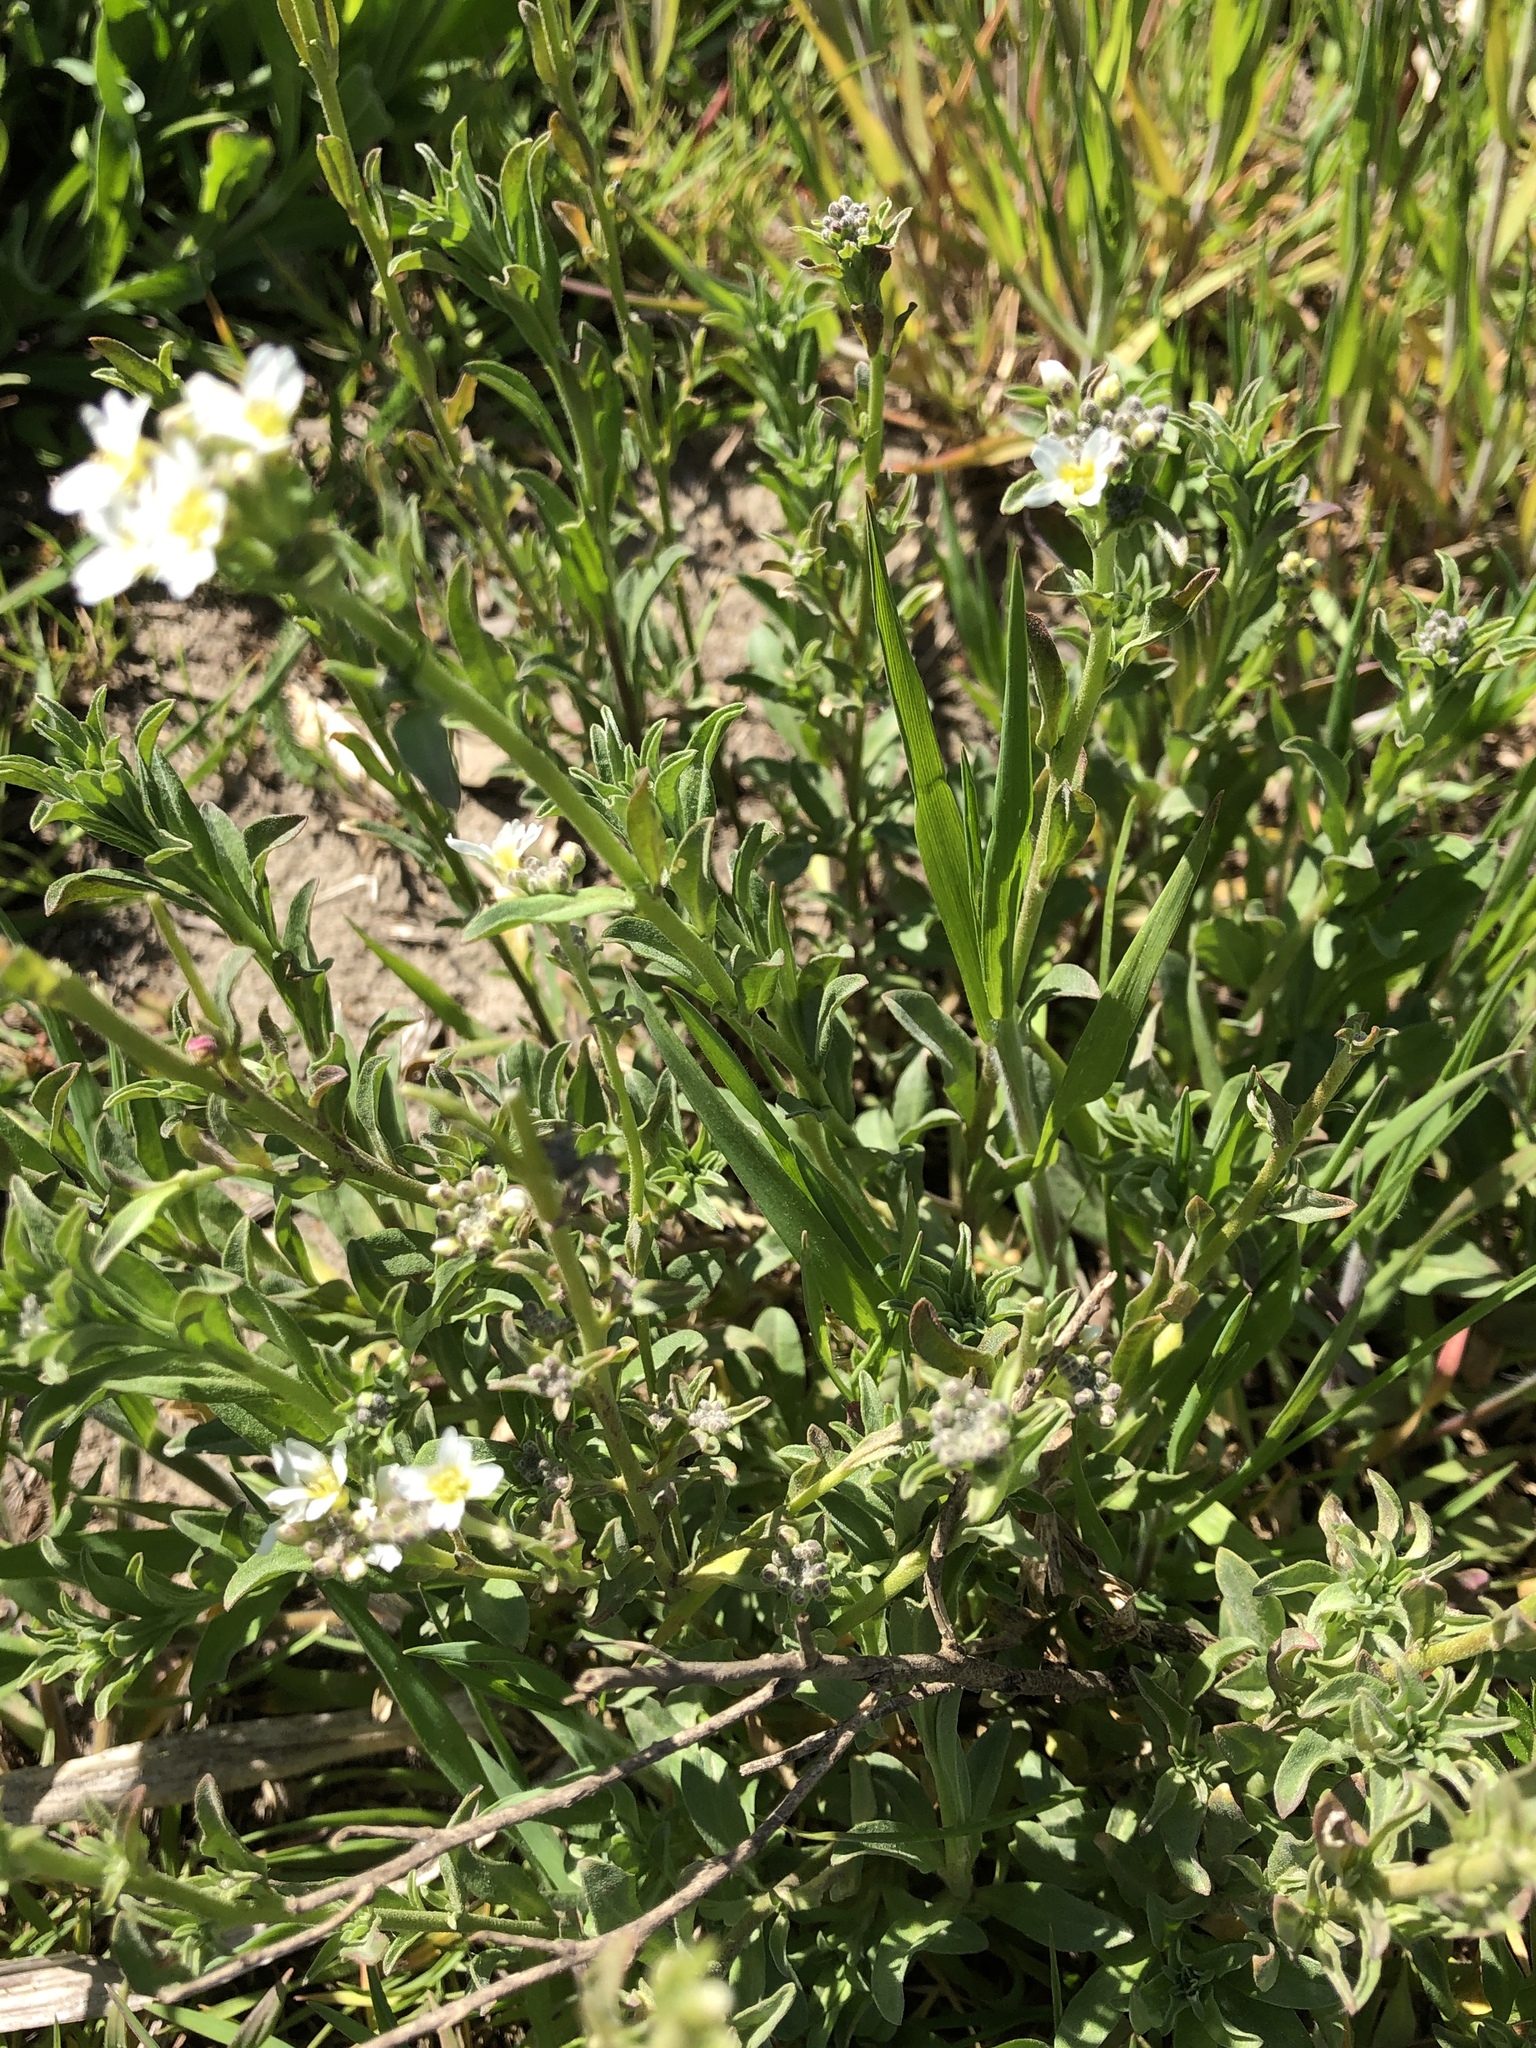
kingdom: Plantae
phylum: Tracheophyta
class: Magnoliopsida
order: Brassicales
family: Brassicaceae
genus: Berteroa
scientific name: Berteroa incana
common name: Hoary alison
